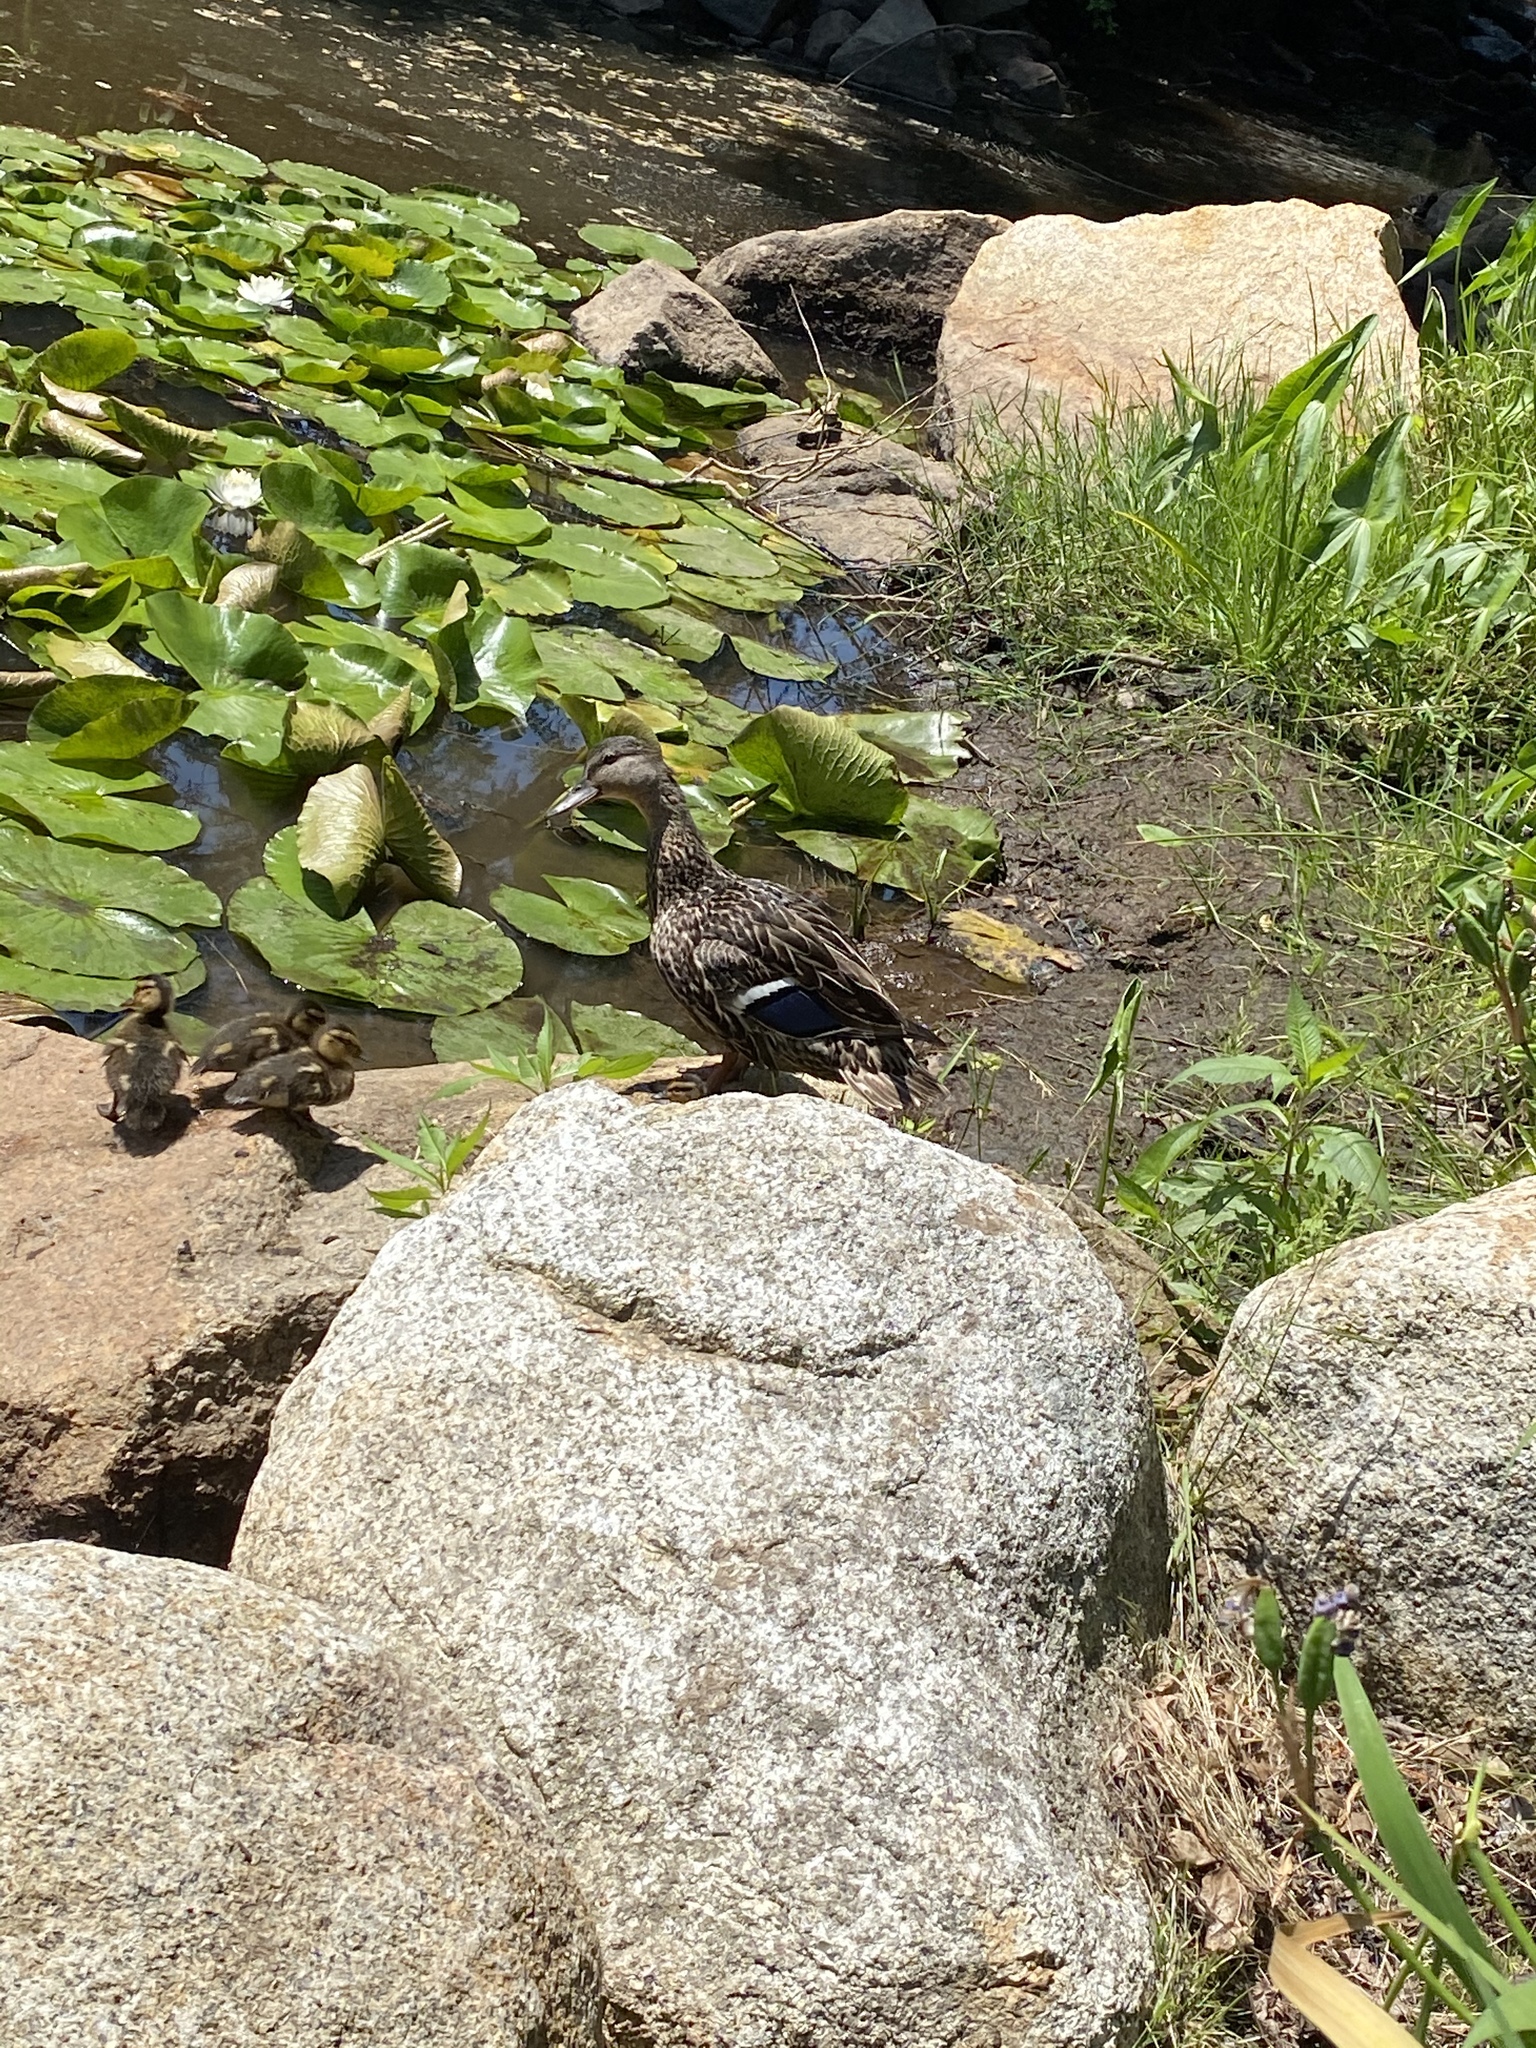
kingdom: Animalia
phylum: Chordata
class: Aves
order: Anseriformes
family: Anatidae
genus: Anas
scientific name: Anas platyrhynchos
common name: Mallard
